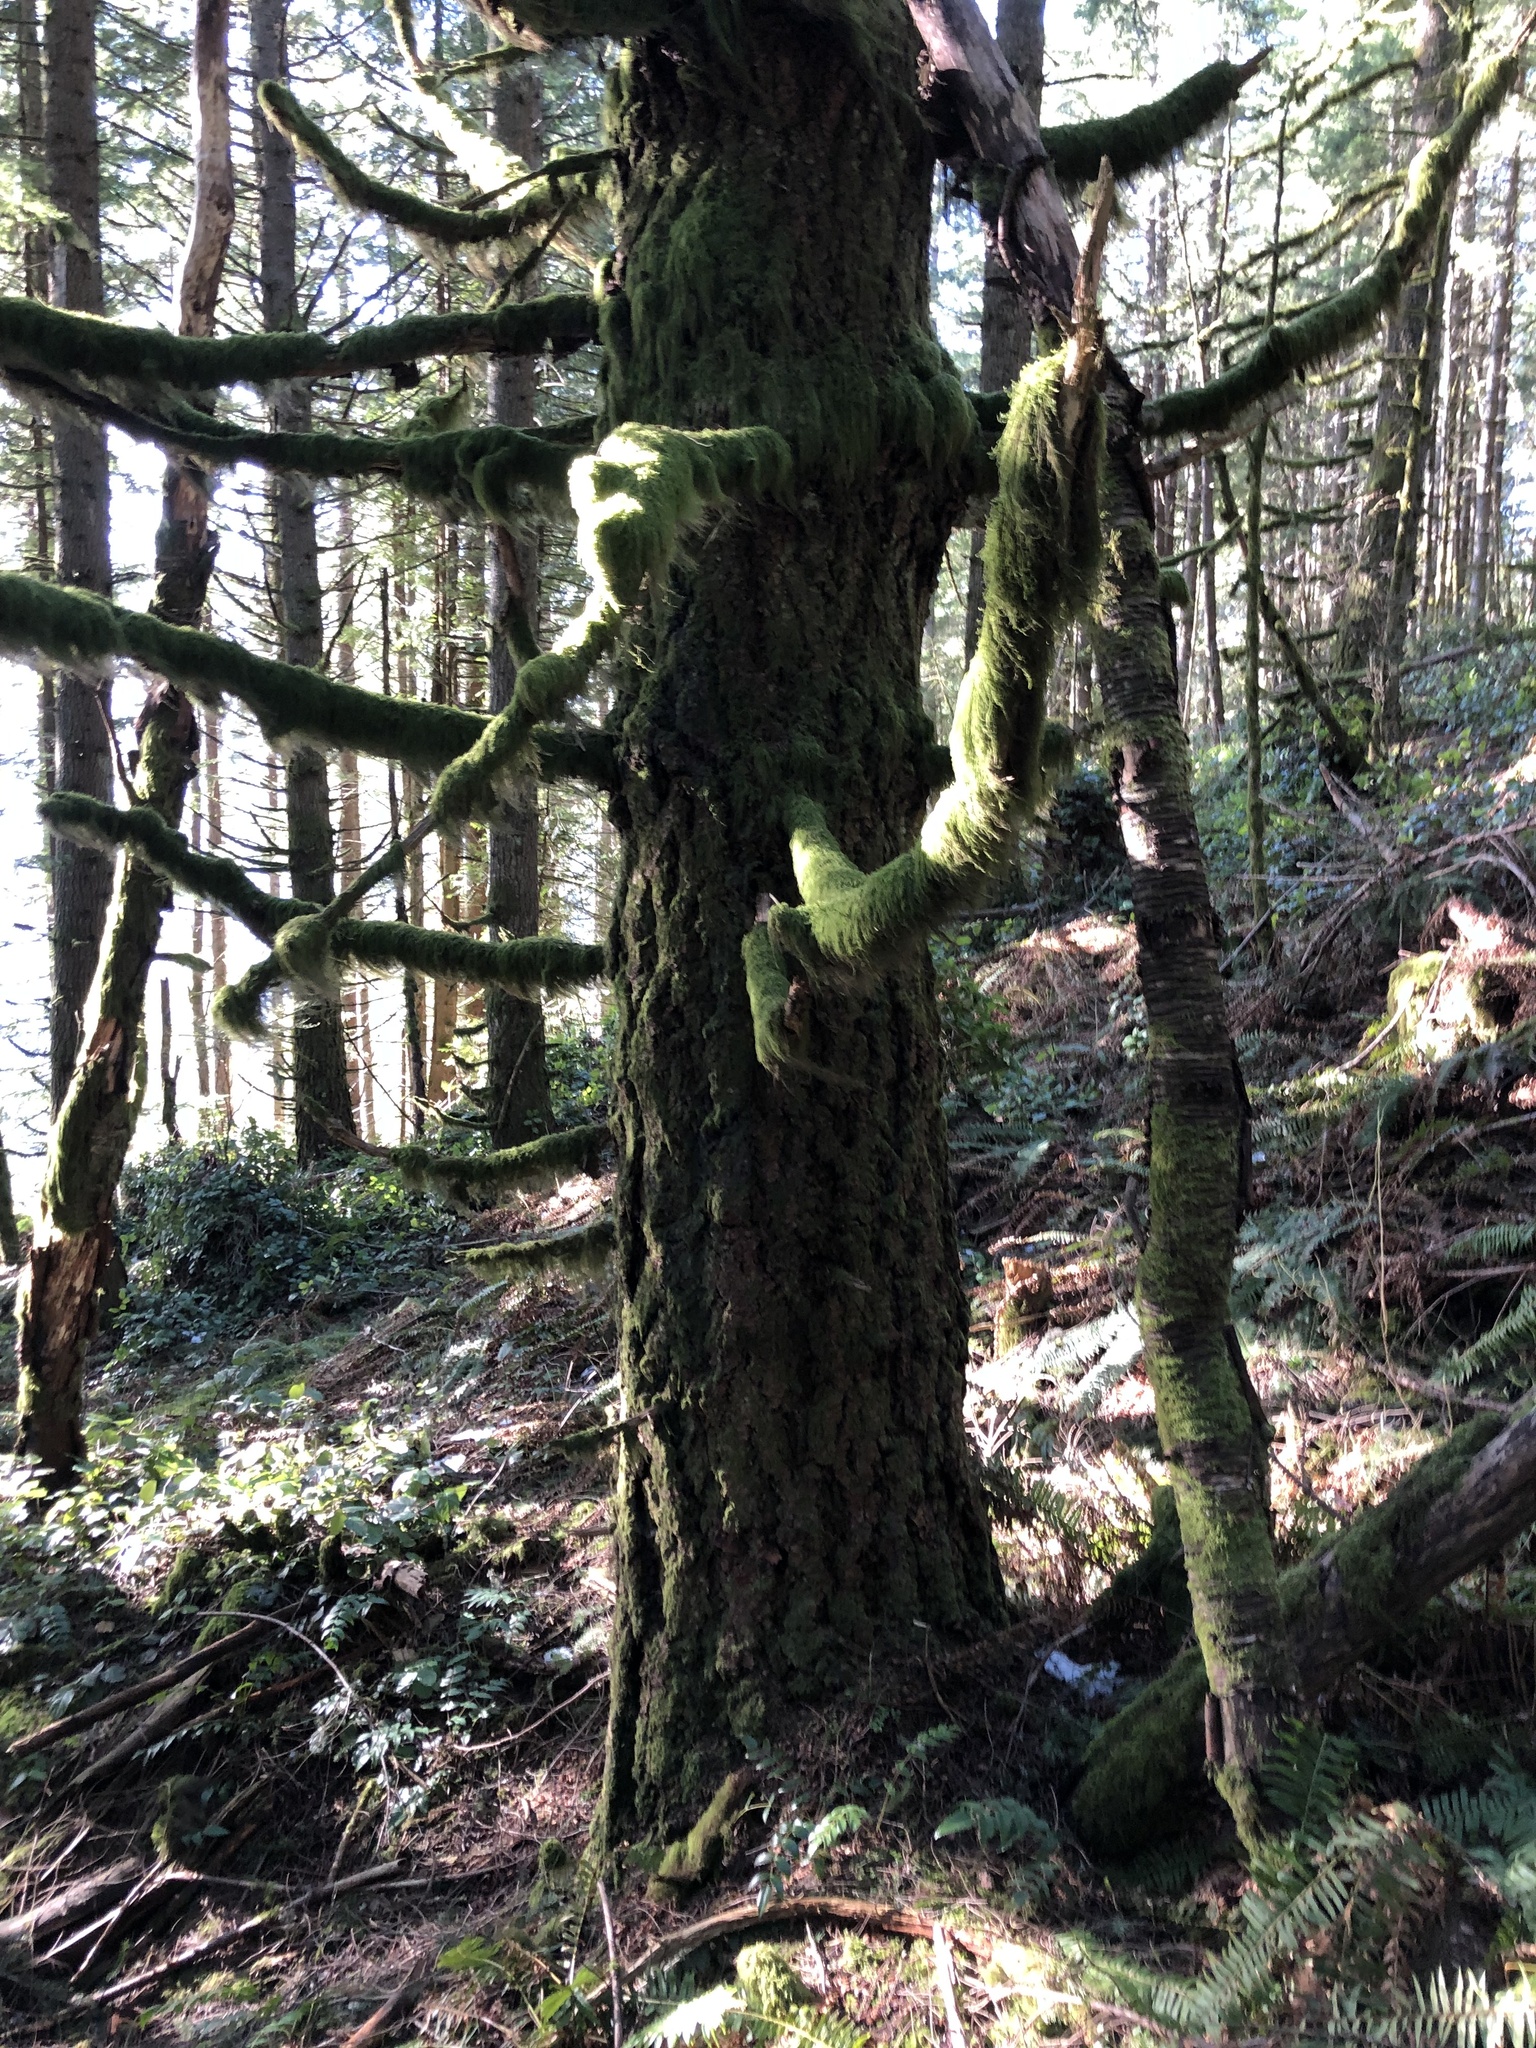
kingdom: Plantae
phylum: Tracheophyta
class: Pinopsida
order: Pinales
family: Pinaceae
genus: Pseudotsuga
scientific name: Pseudotsuga menziesii
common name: Douglas fir
